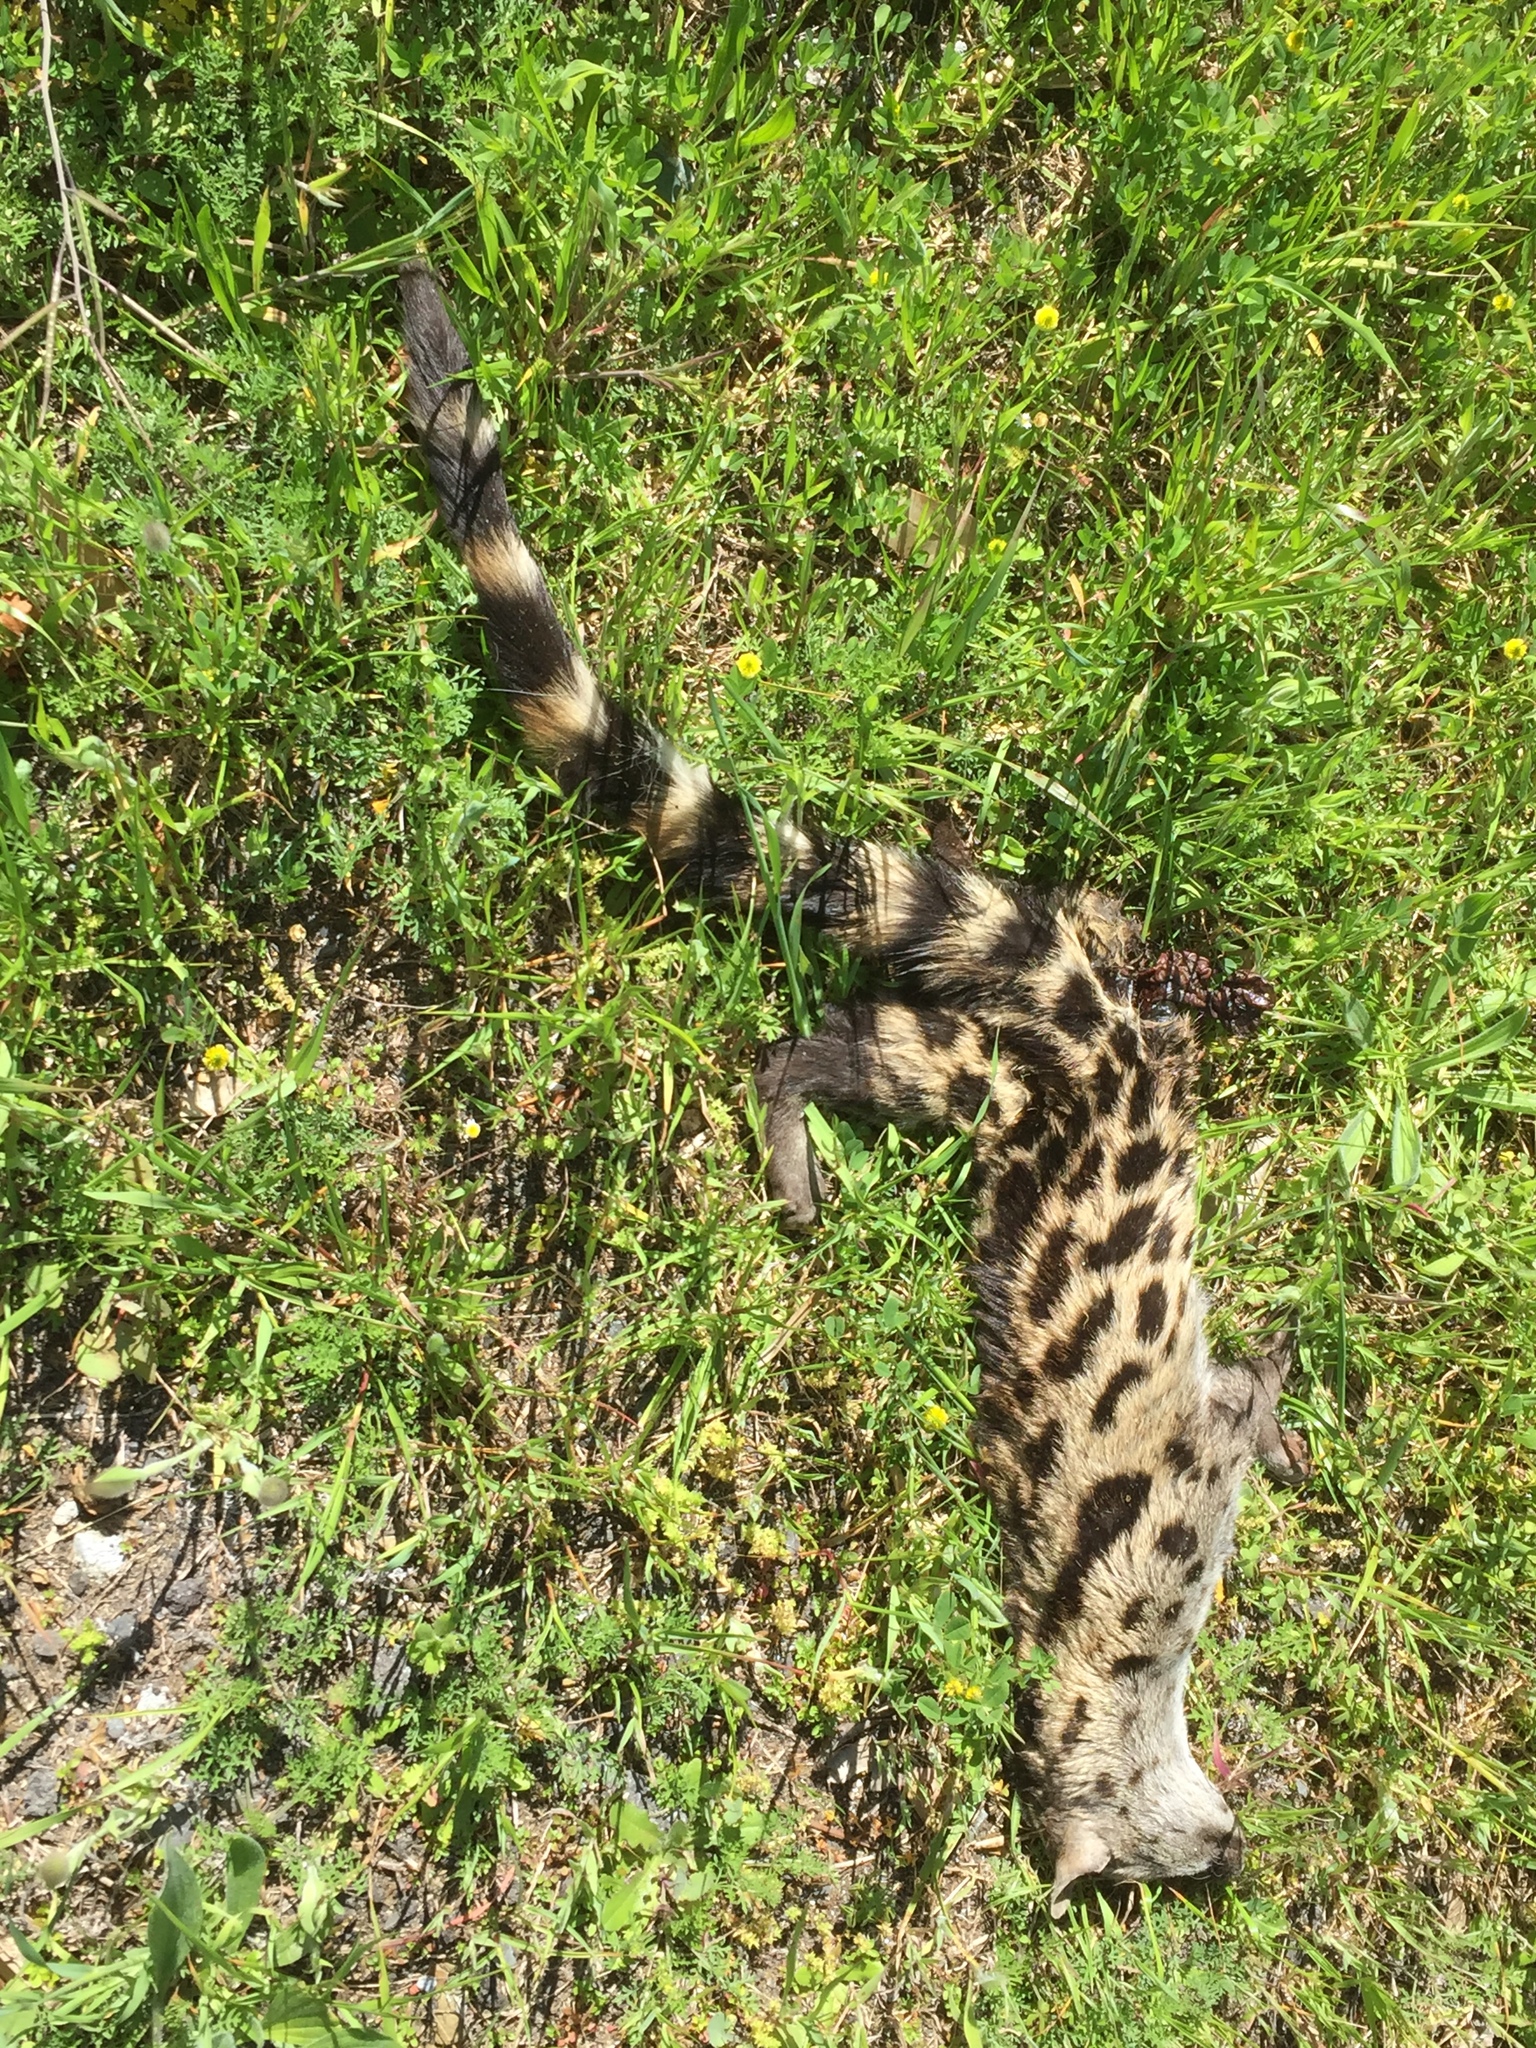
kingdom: Animalia
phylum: Chordata
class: Mammalia
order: Carnivora
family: Viverridae
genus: Genetta
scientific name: Genetta tigrina
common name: Cape genet
